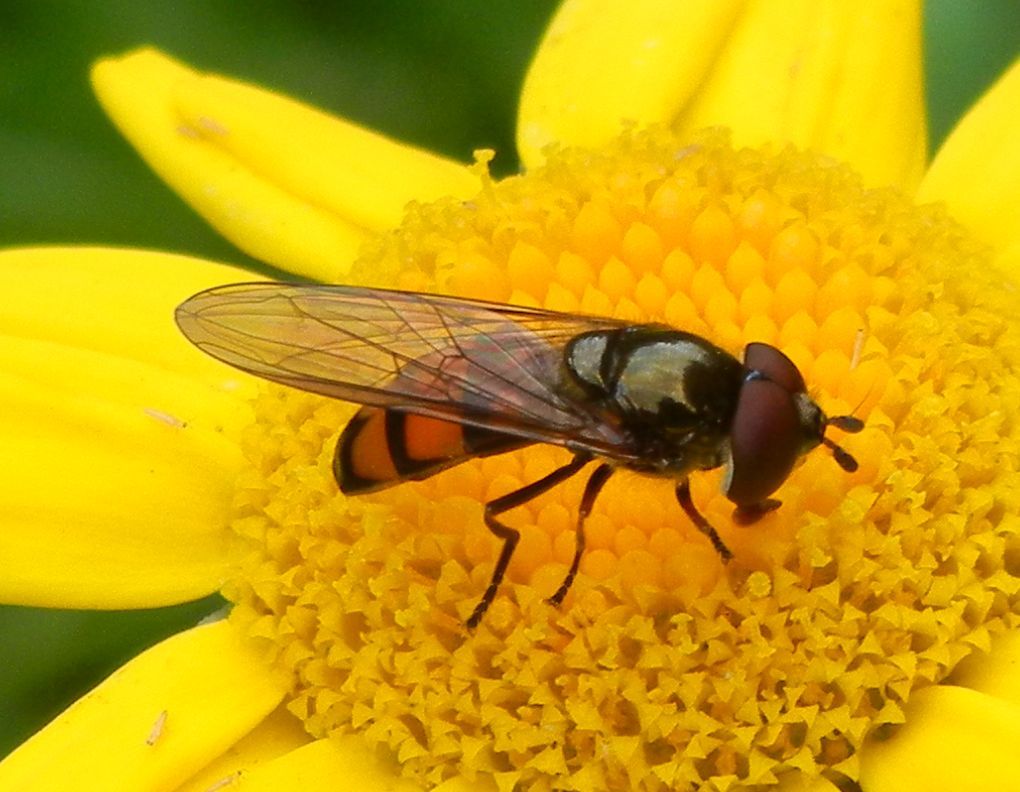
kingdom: Animalia
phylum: Arthropoda
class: Insecta
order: Diptera
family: Syrphidae
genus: Xanthandrus
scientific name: Xanthandrus comtus
